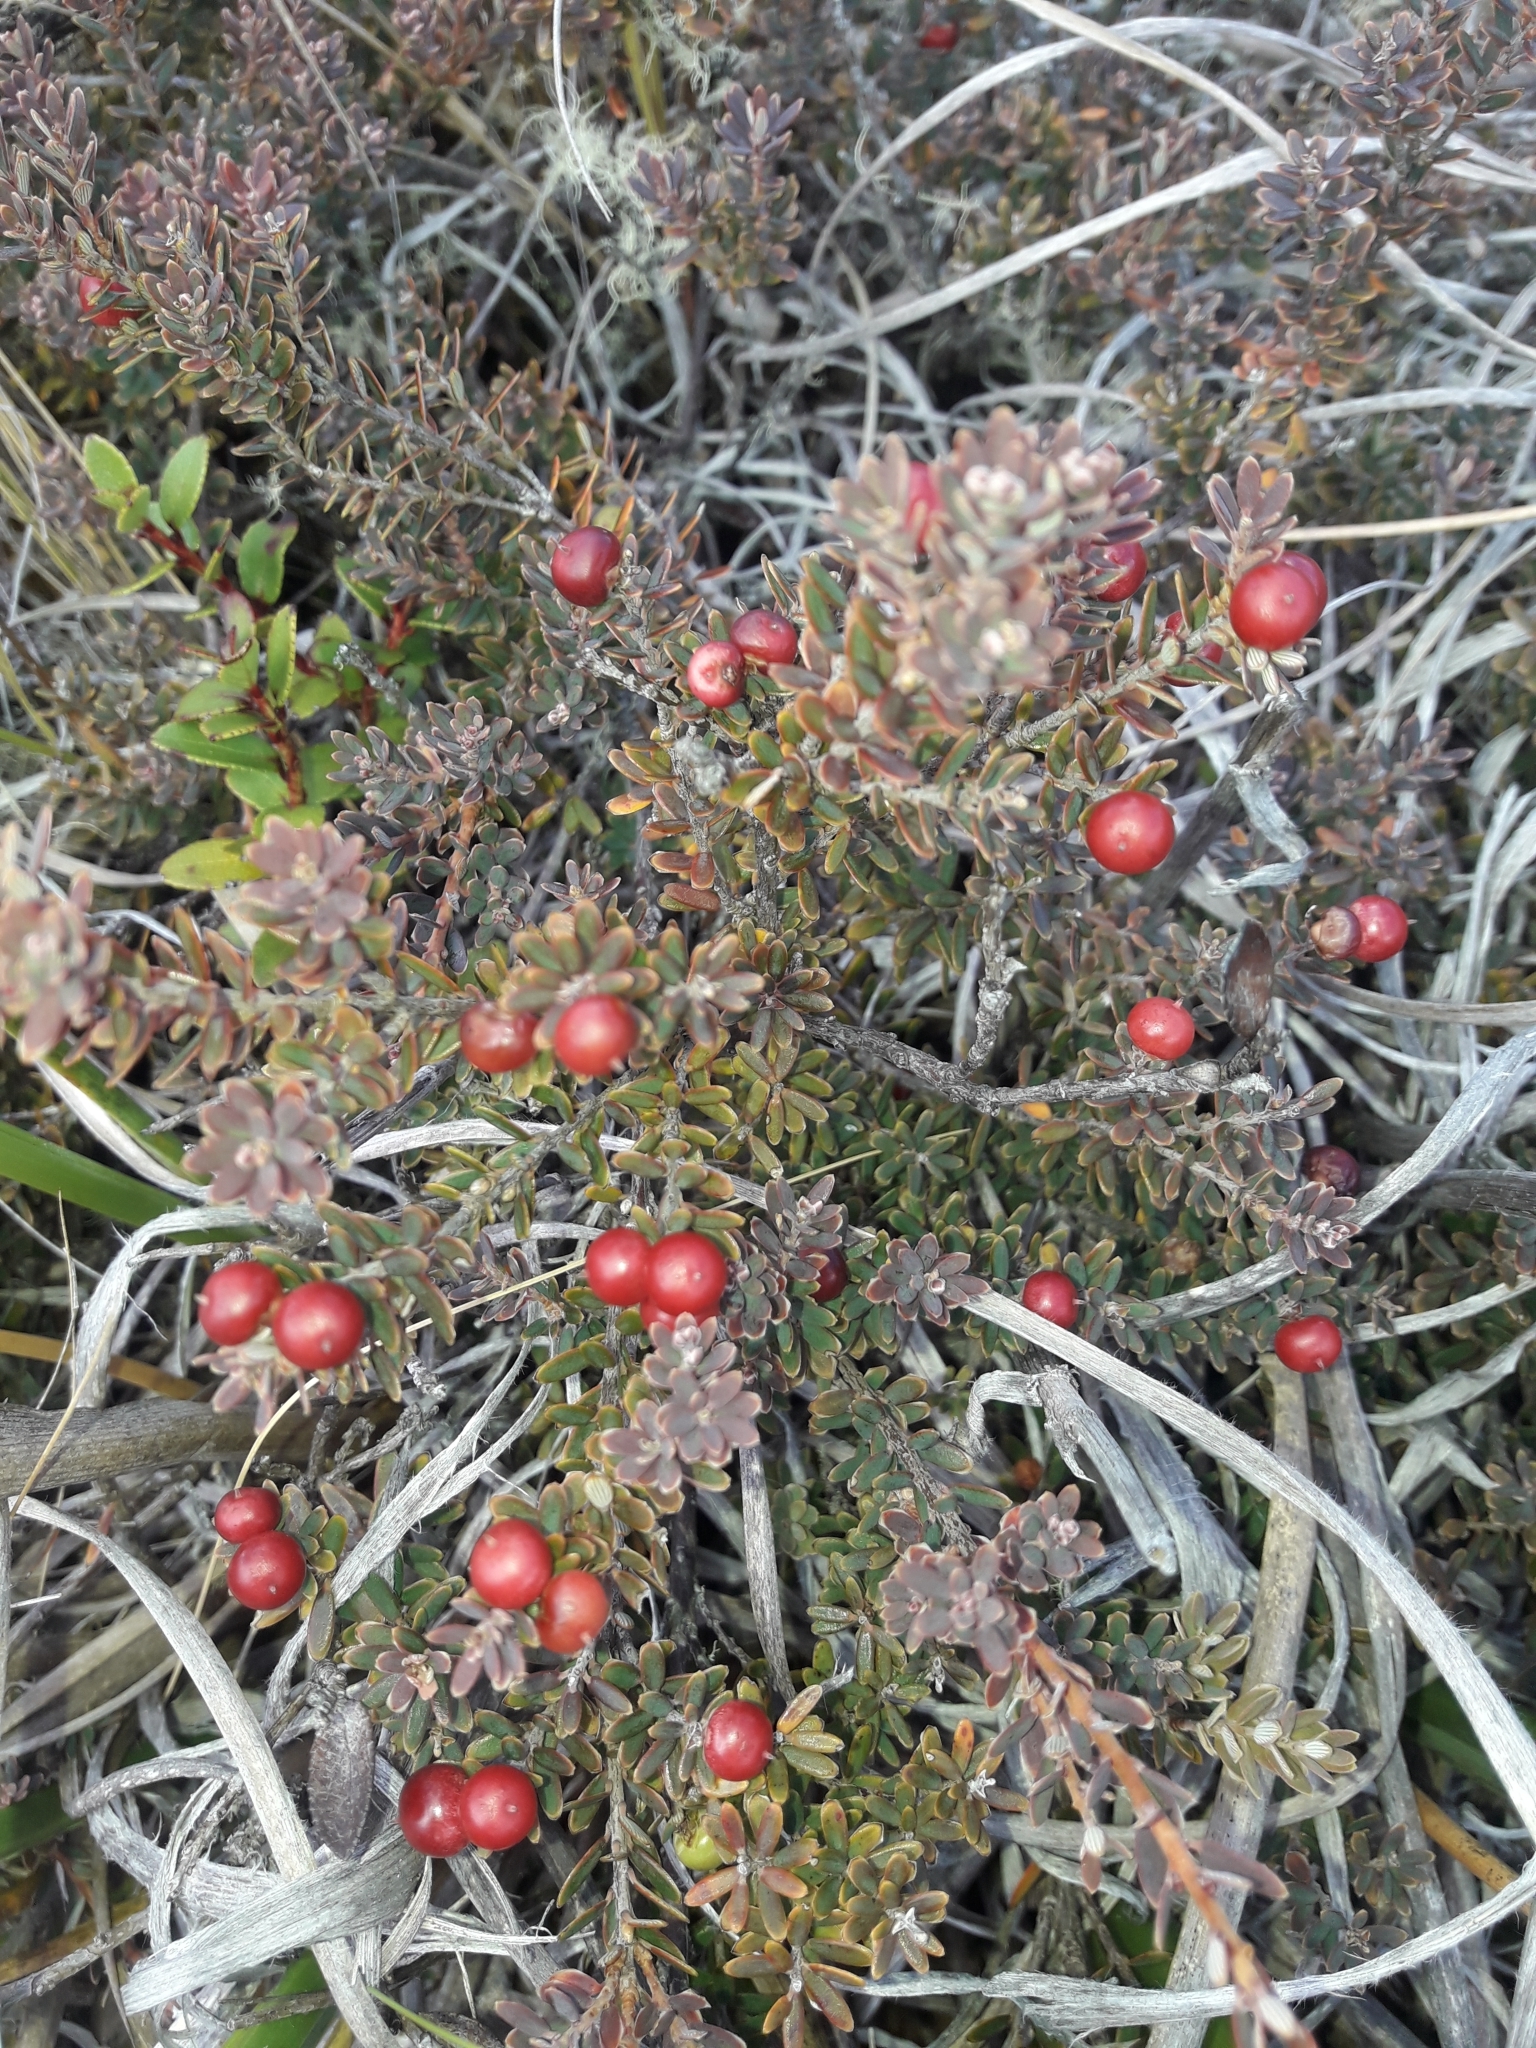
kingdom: Plantae
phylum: Tracheophyta
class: Magnoliopsida
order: Ericales
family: Ericaceae
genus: Acrothamnus
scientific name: Acrothamnus colensoi
